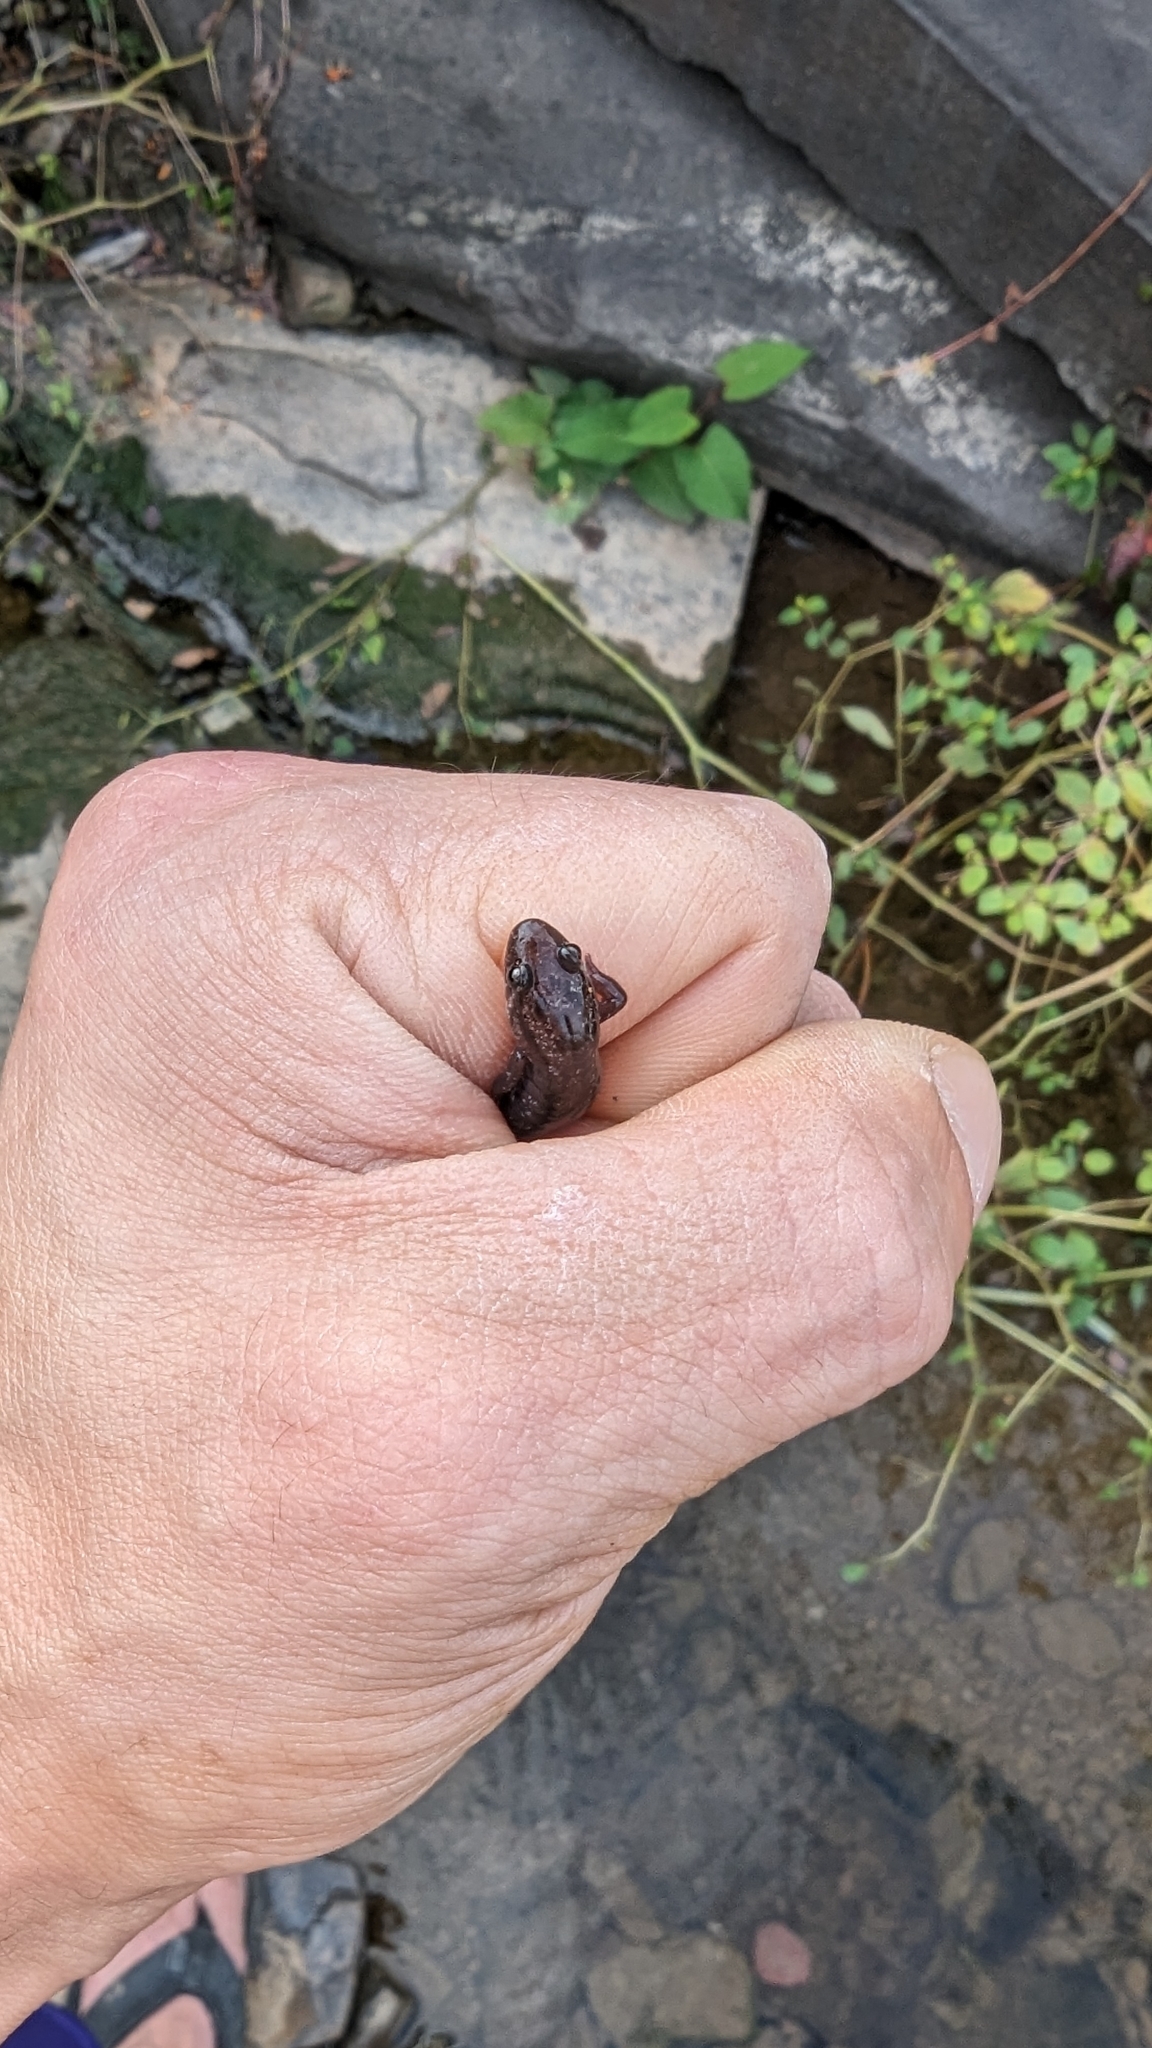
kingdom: Animalia
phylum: Chordata
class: Amphibia
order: Caudata
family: Plethodontidae
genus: Desmognathus
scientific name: Desmognathus fuscus
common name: Northern dusky salamander
